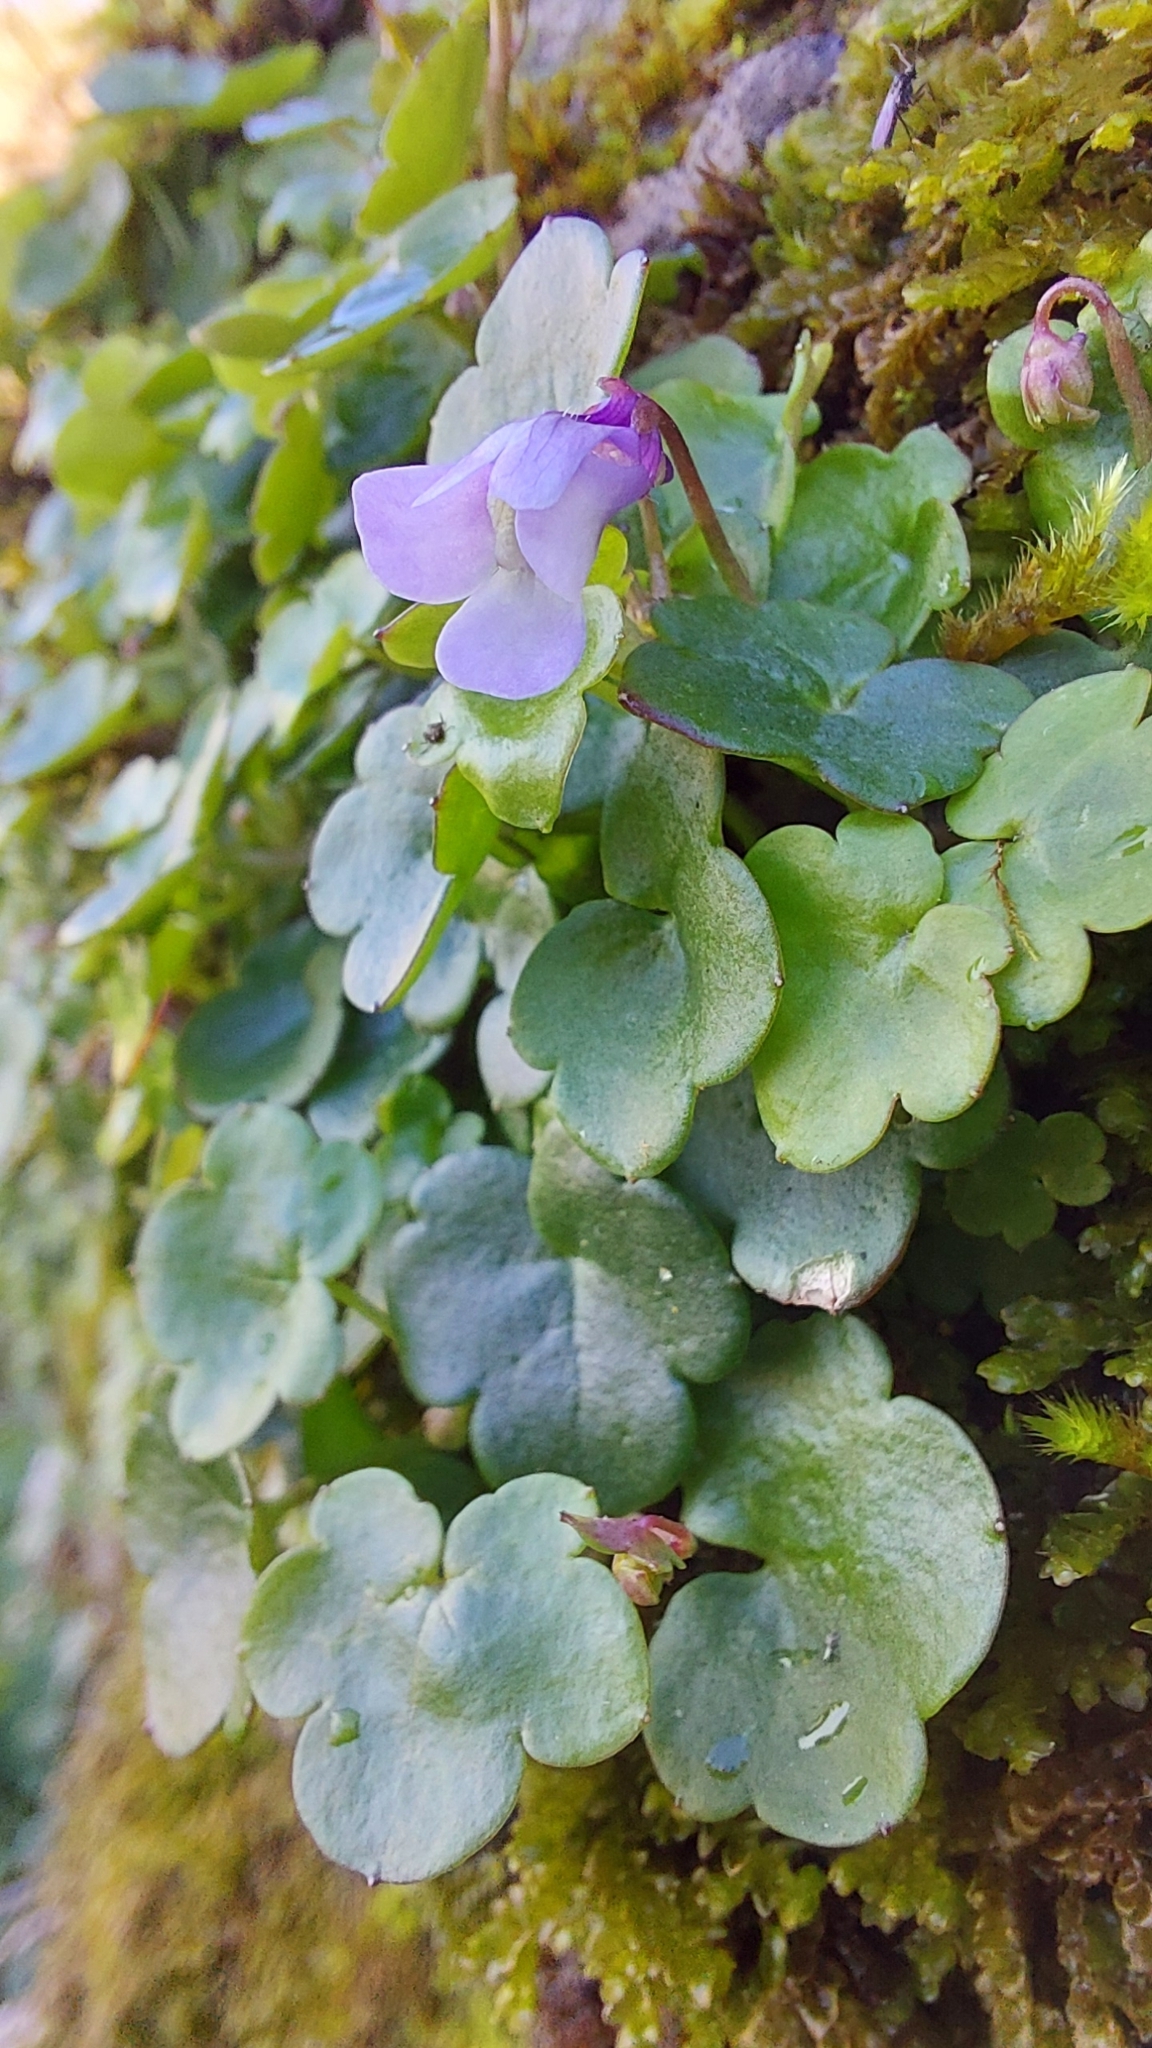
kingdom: Plantae
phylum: Tracheophyta
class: Magnoliopsida
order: Lamiales
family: Plantaginaceae
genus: Cymbalaria
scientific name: Cymbalaria muralis
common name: Ivy-leaved toadflax
